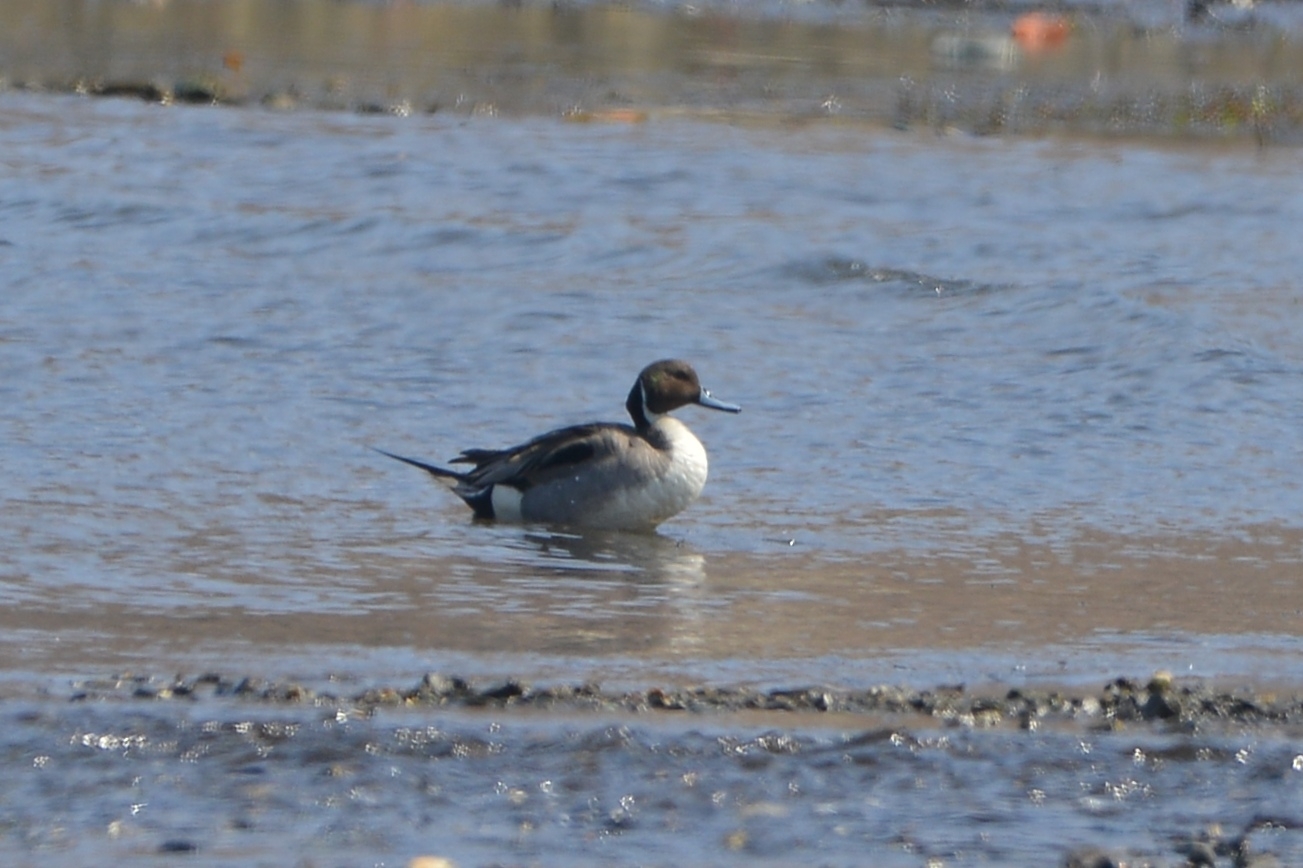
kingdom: Animalia
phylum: Chordata
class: Aves
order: Anseriformes
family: Anatidae
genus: Anas
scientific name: Anas acuta
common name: Northern pintail
